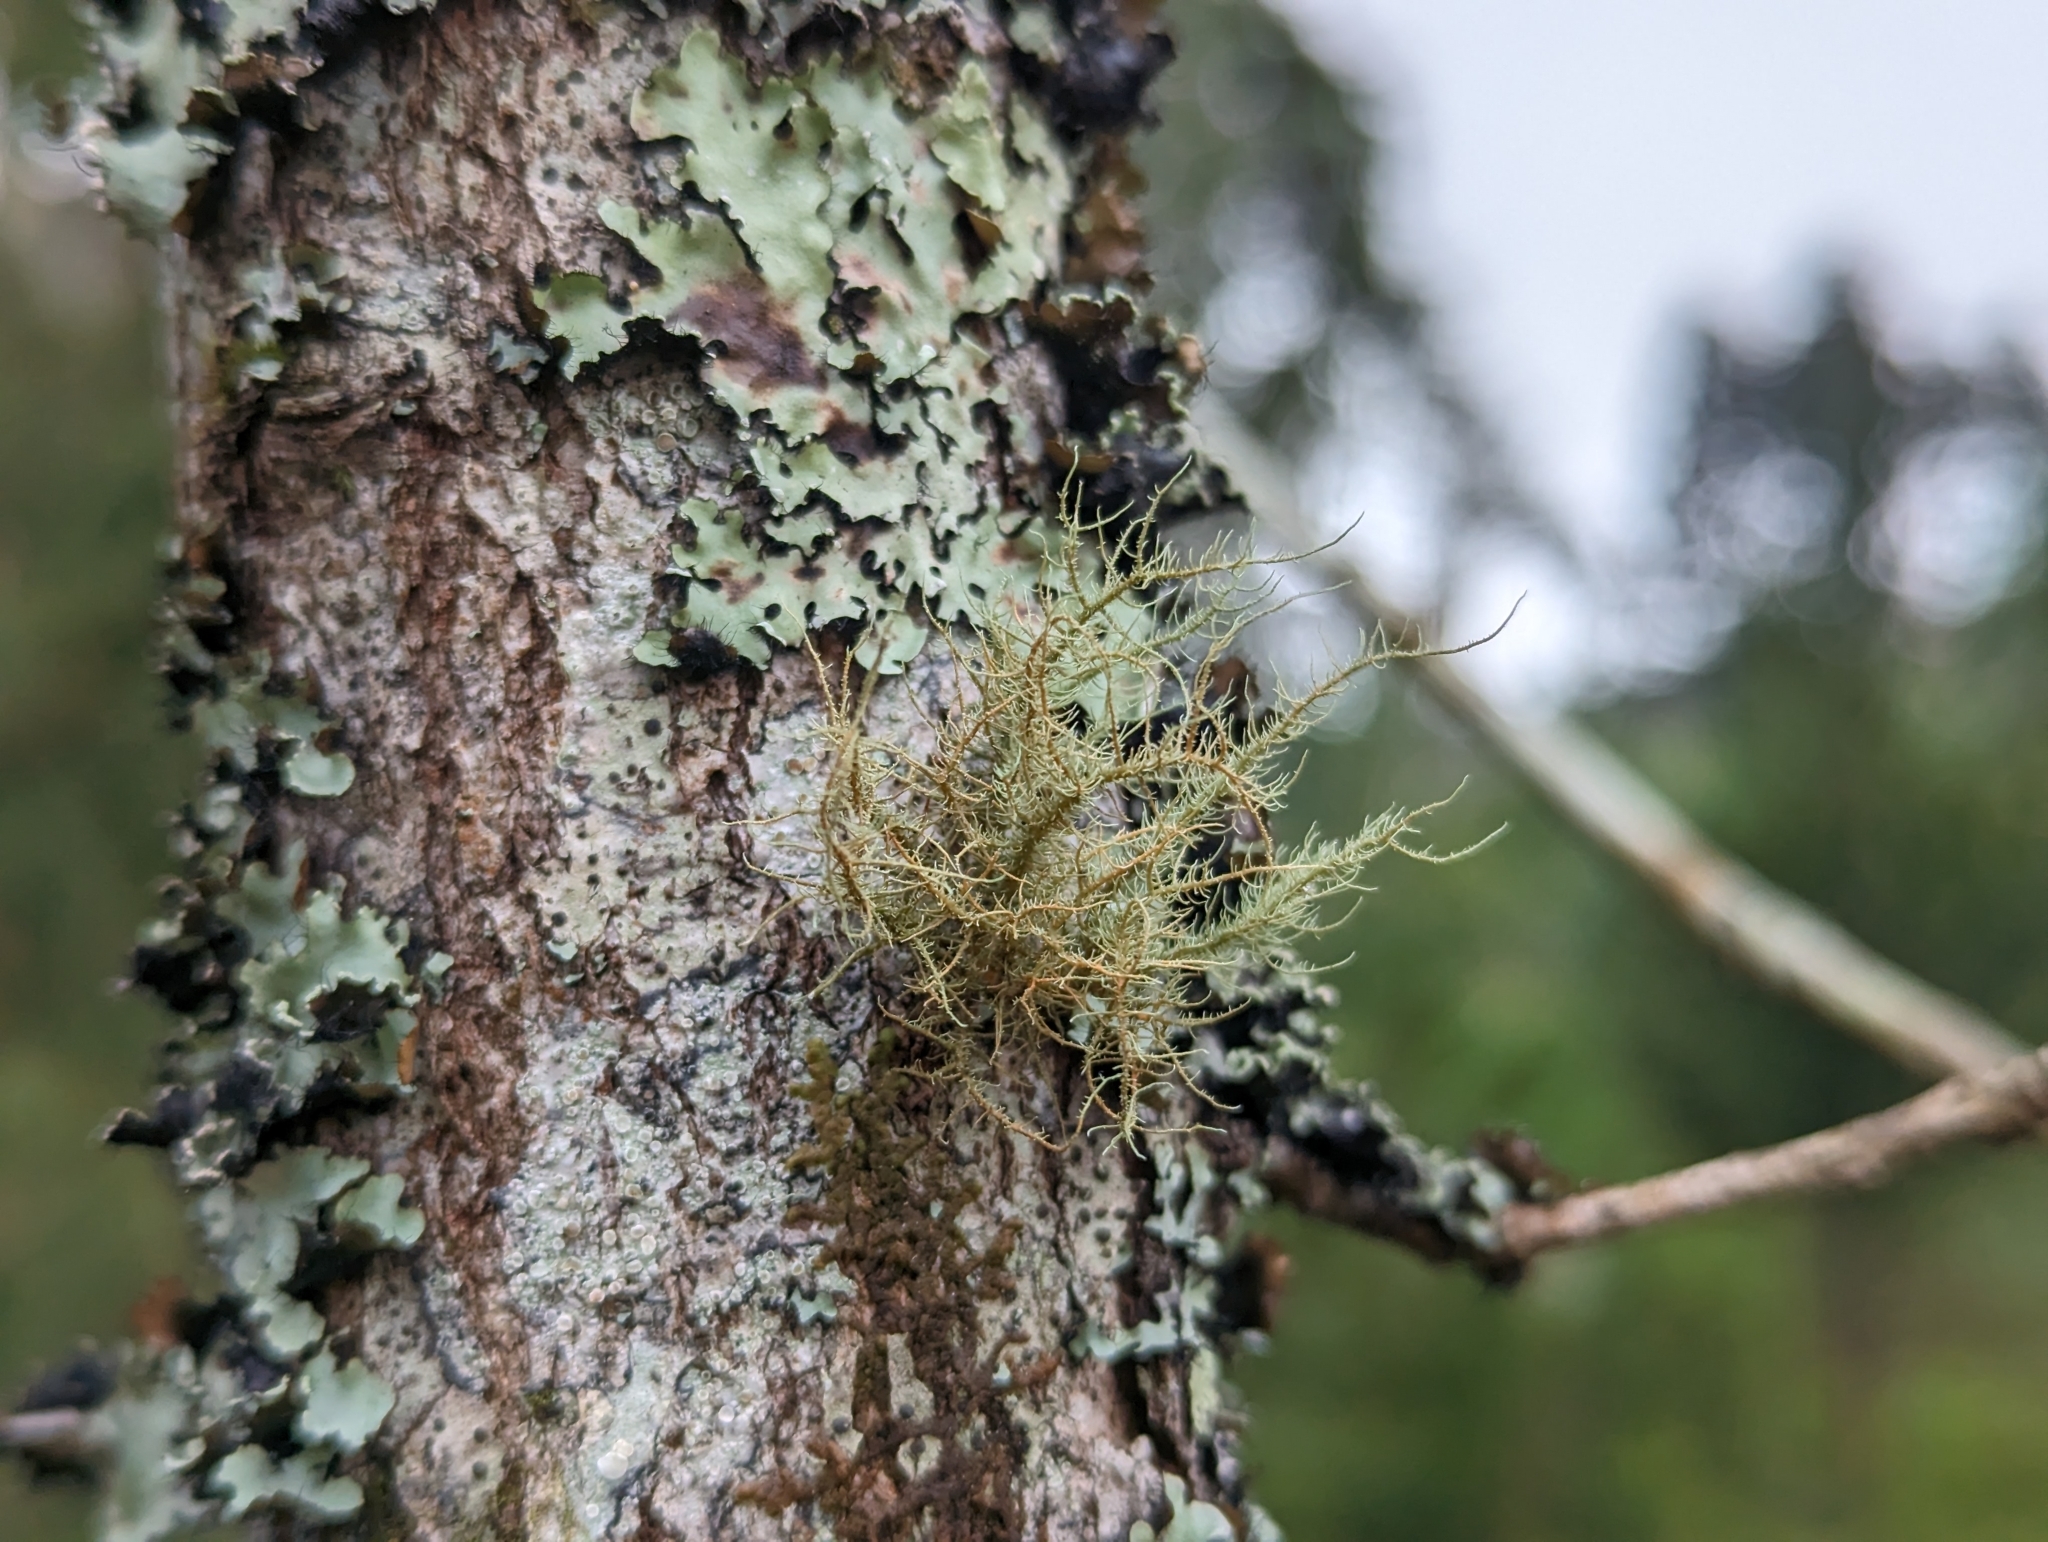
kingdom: Fungi
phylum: Ascomycota
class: Lecanoromycetes
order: Lecanorales
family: Parmeliaceae
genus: Usnea
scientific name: Usnea rubicunda
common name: Red beard lichen
